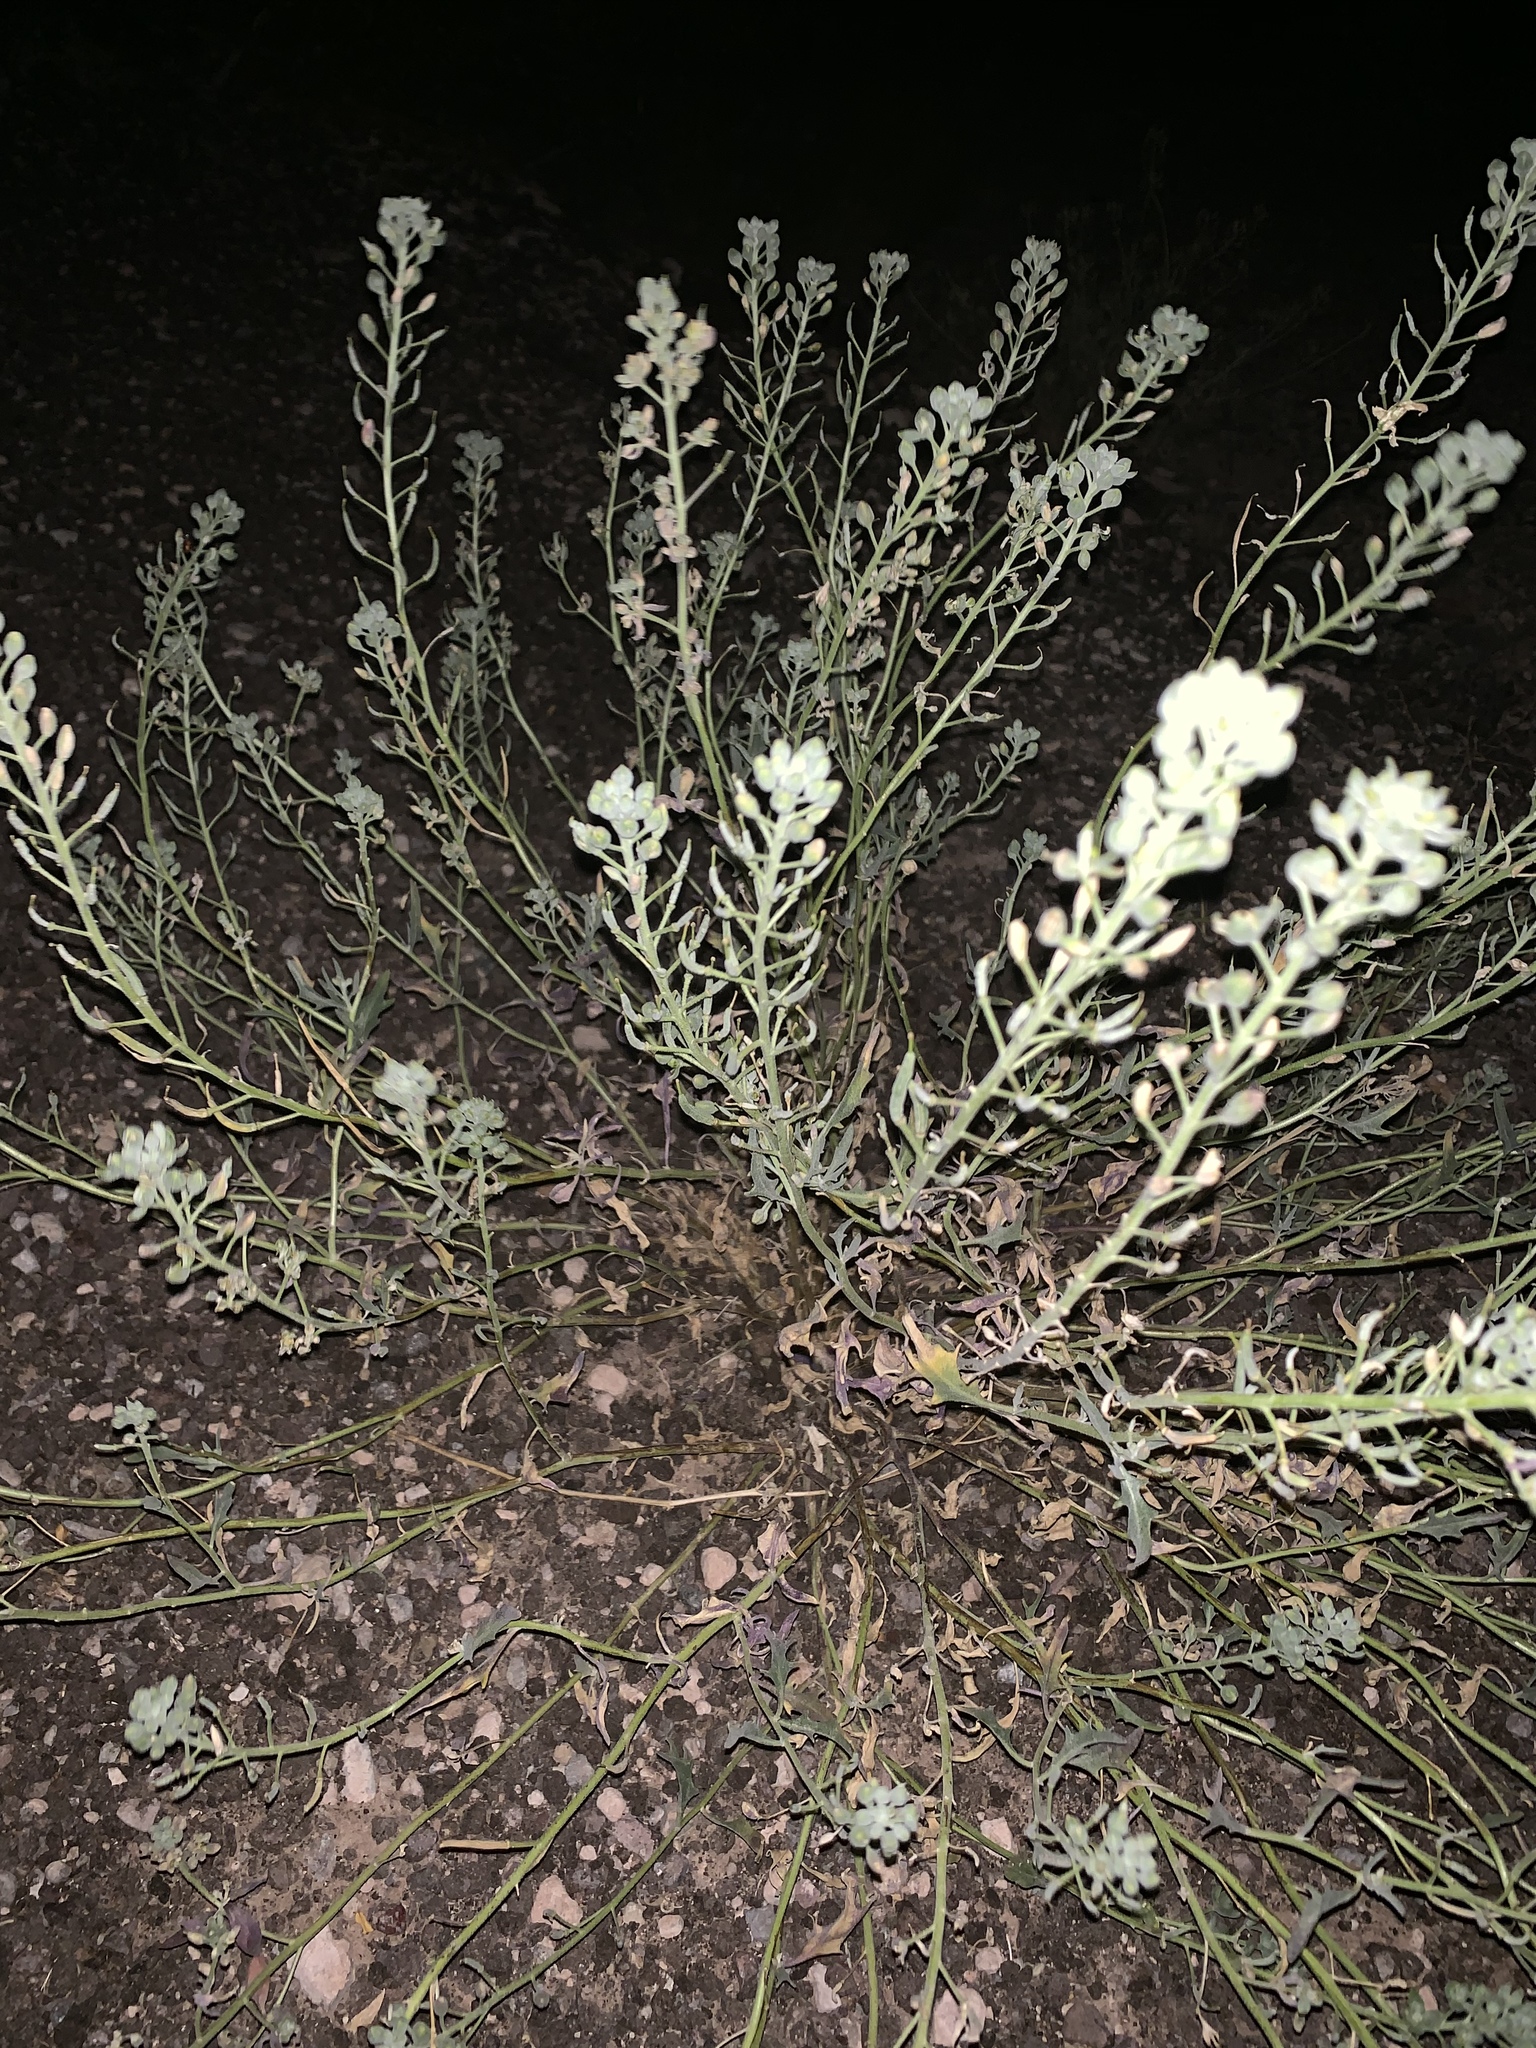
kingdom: Plantae
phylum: Tracheophyta
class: Magnoliopsida
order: Brassicales
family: Brassicaceae
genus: Nerisyrenia
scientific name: Nerisyrenia camporum
